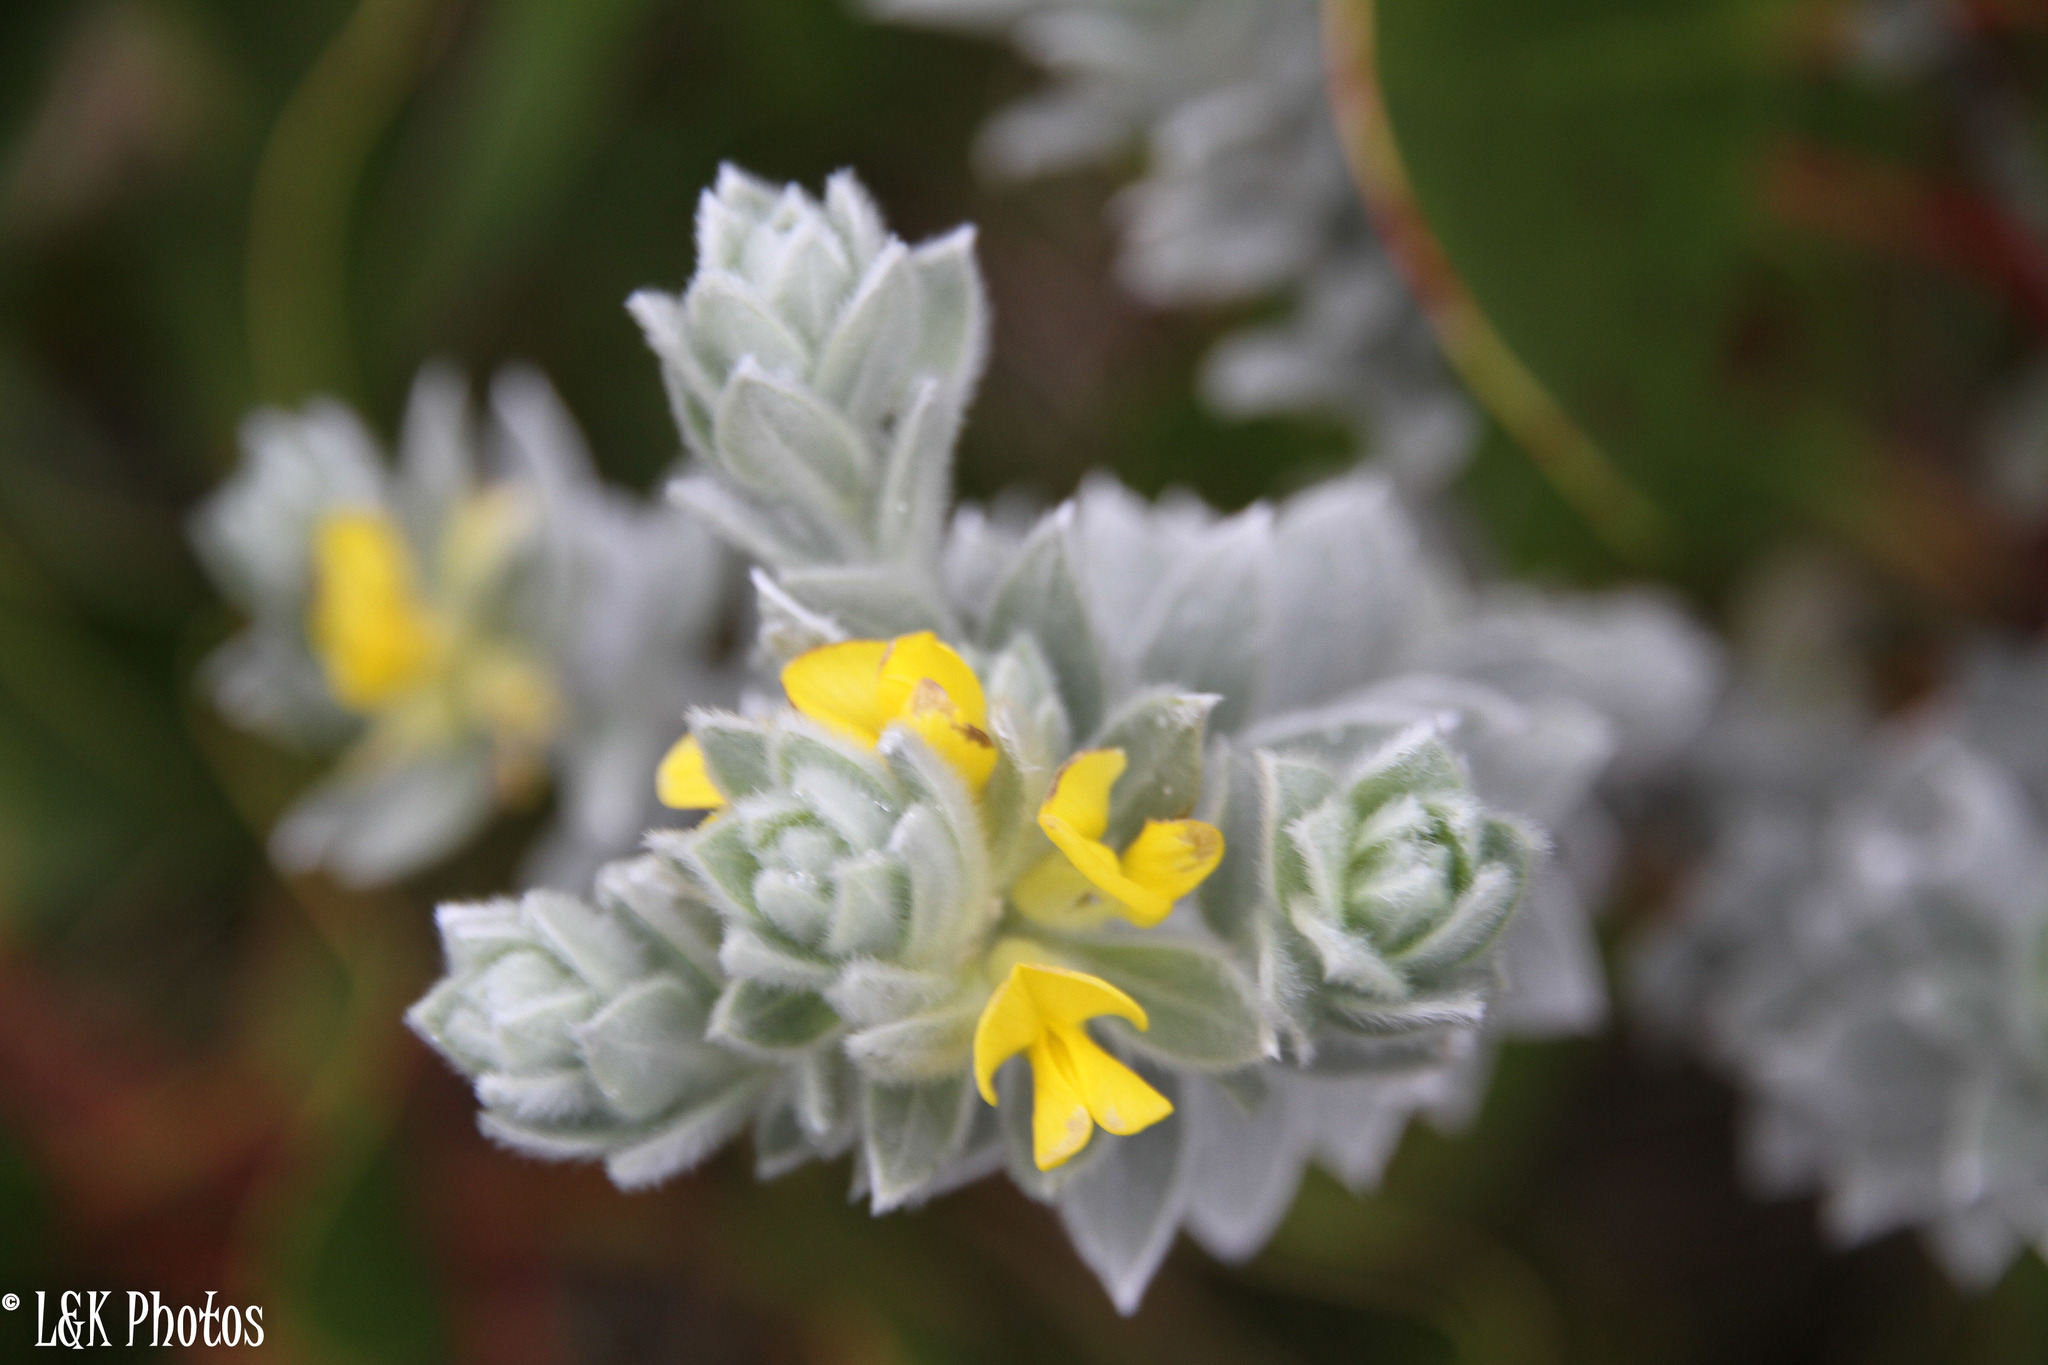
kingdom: Plantae
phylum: Tracheophyta
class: Magnoliopsida
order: Fabales
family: Fabaceae
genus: Xiphotheca
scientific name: Xiphotheca fruticosa
